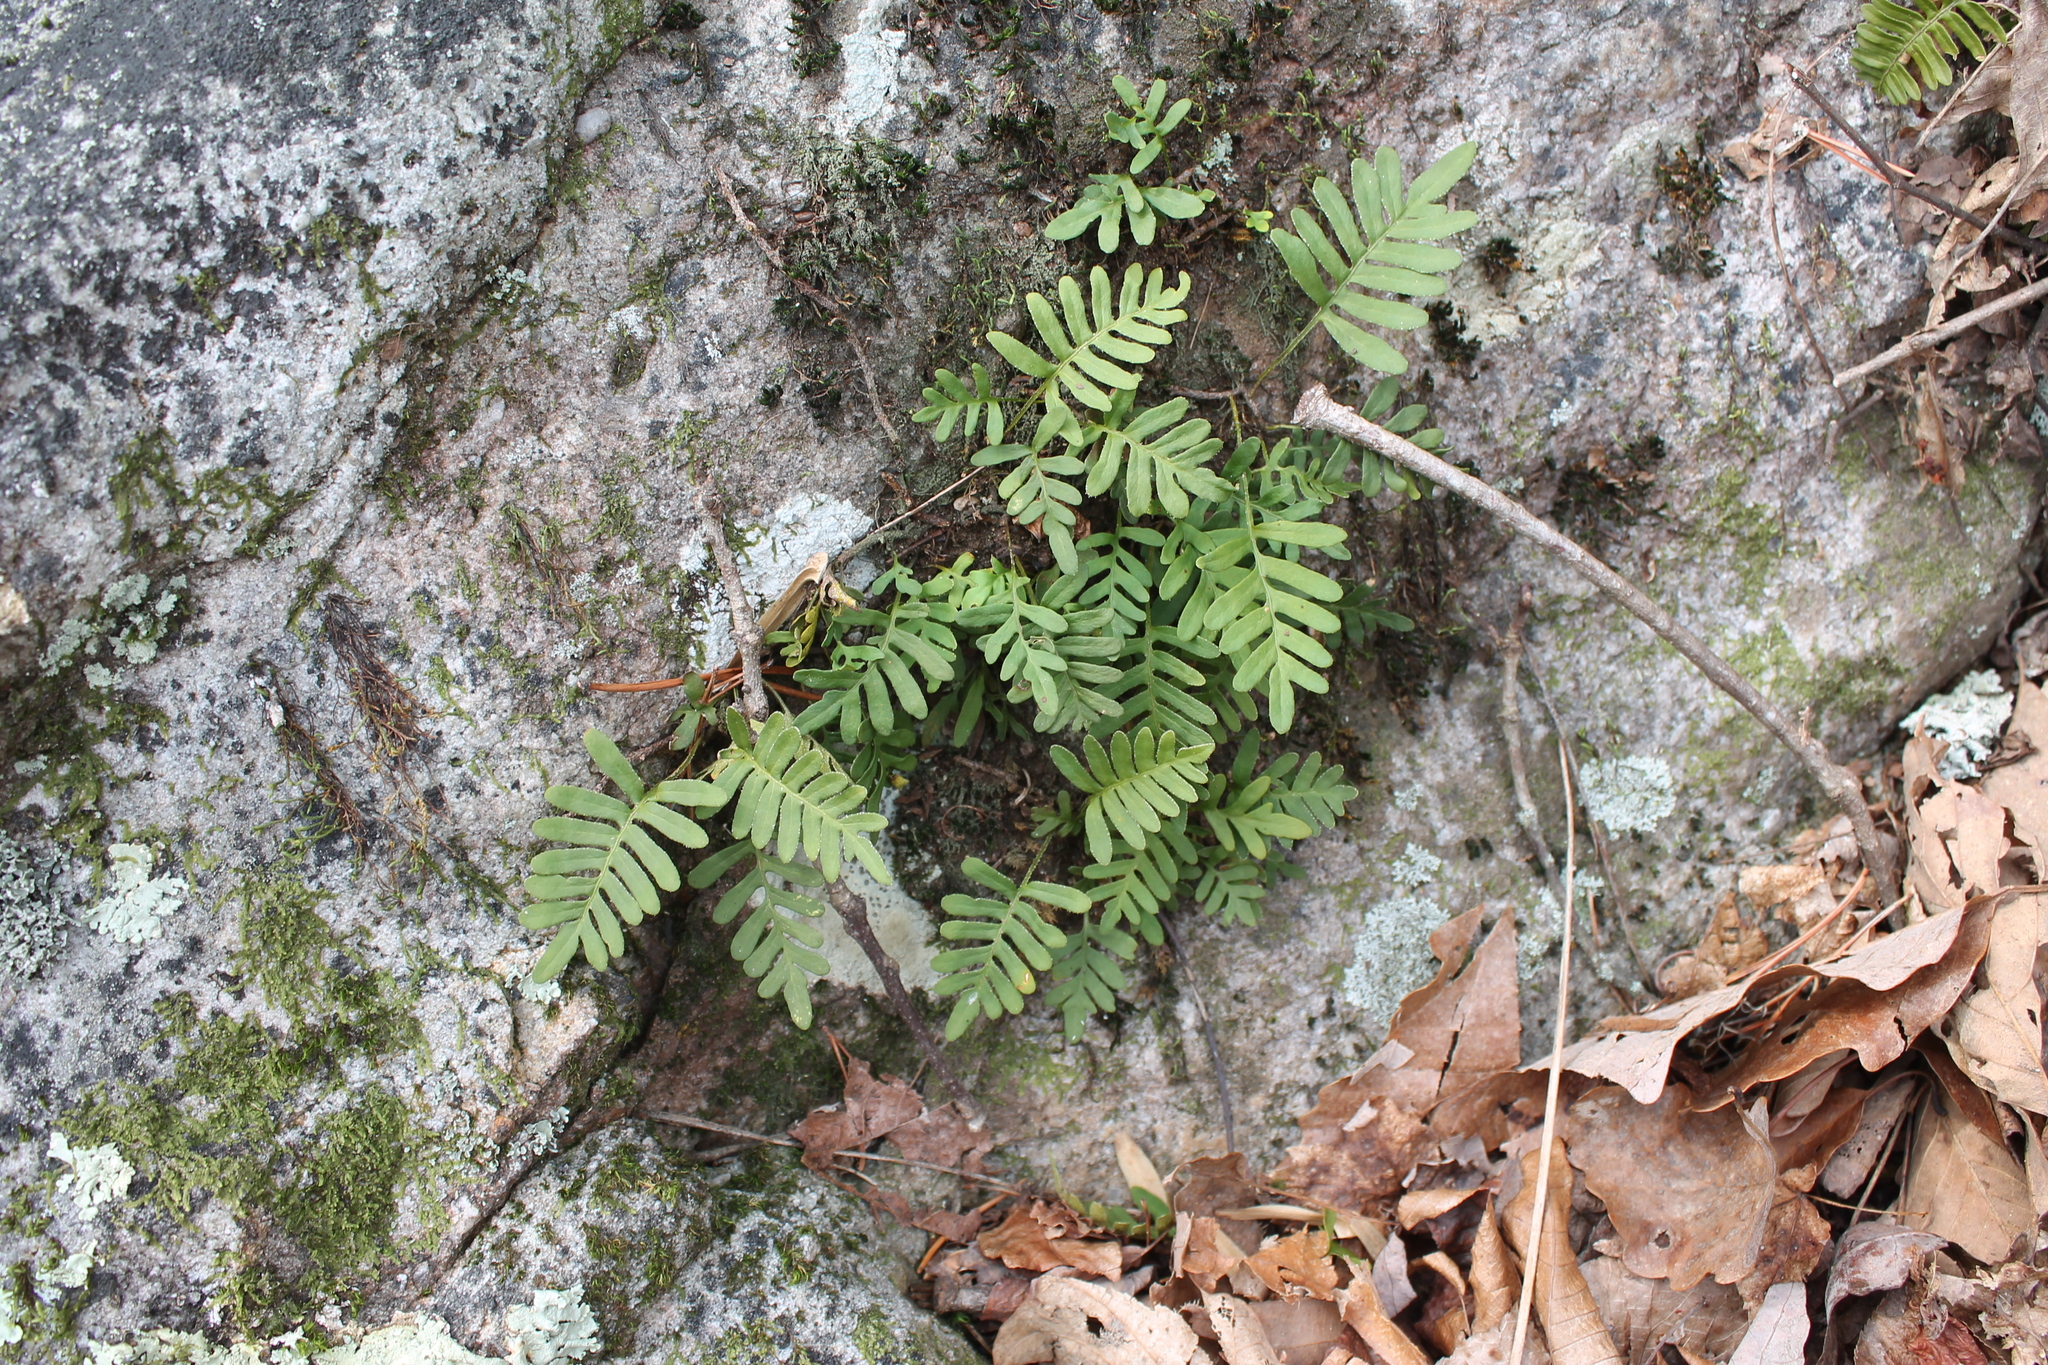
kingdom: Plantae
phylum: Tracheophyta
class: Polypodiopsida
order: Polypodiales
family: Polypodiaceae
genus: Pleopeltis
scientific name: Pleopeltis michauxiana
